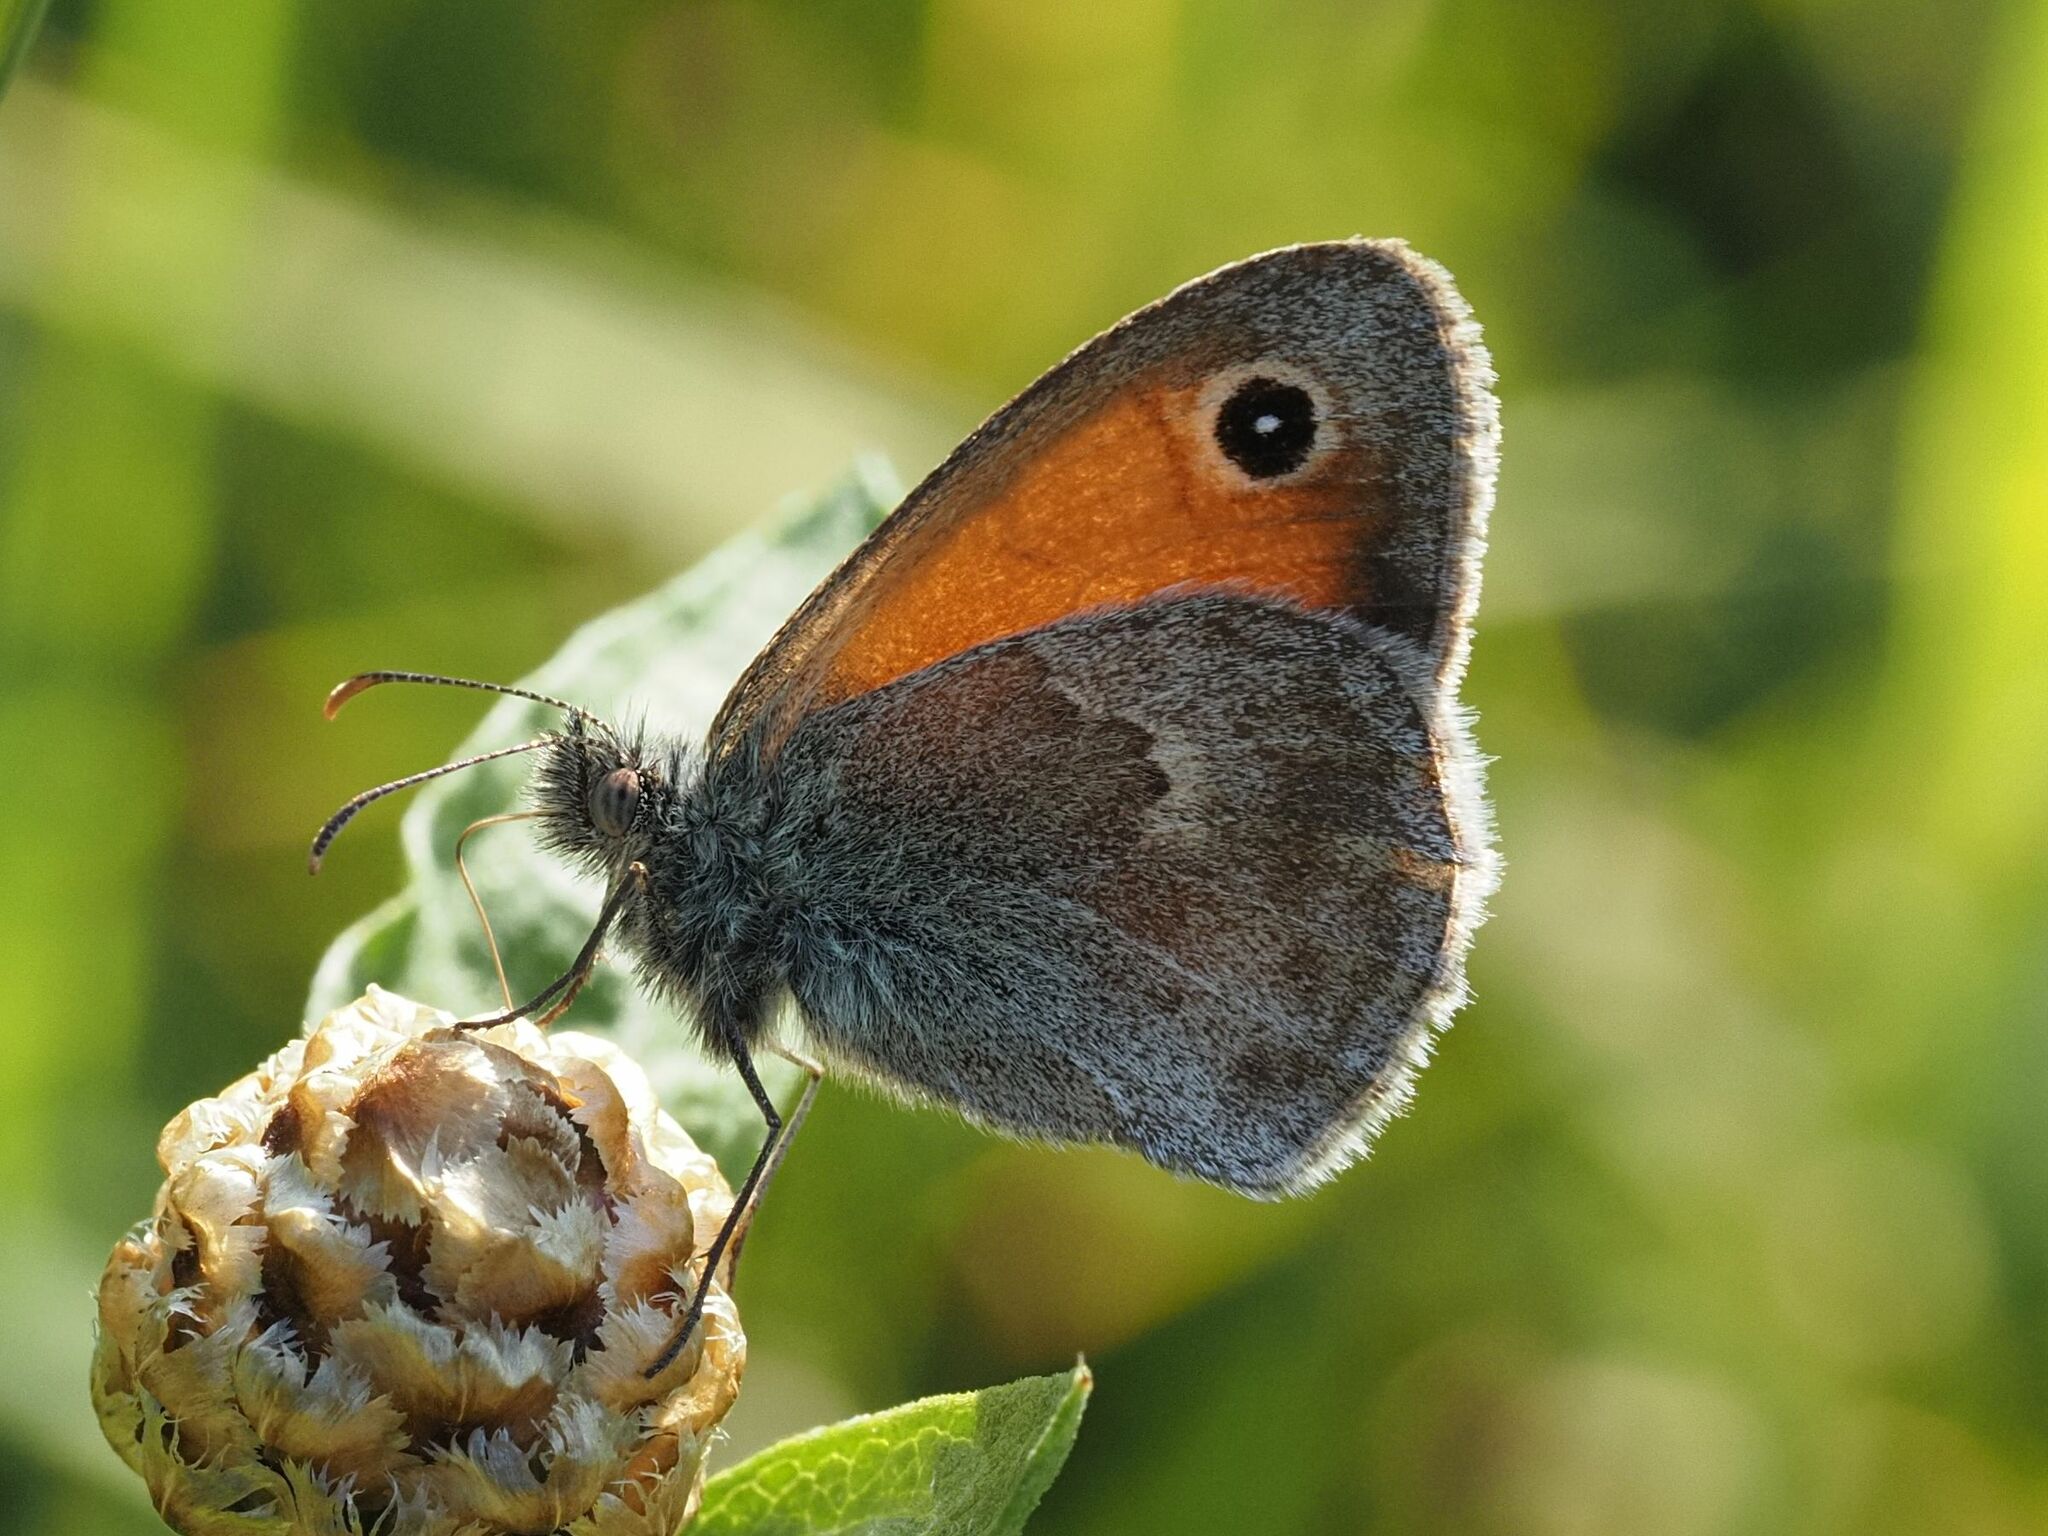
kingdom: Animalia
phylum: Arthropoda
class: Insecta
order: Lepidoptera
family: Nymphalidae
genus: Coenonympha
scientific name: Coenonympha pamphilus
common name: Small heath
